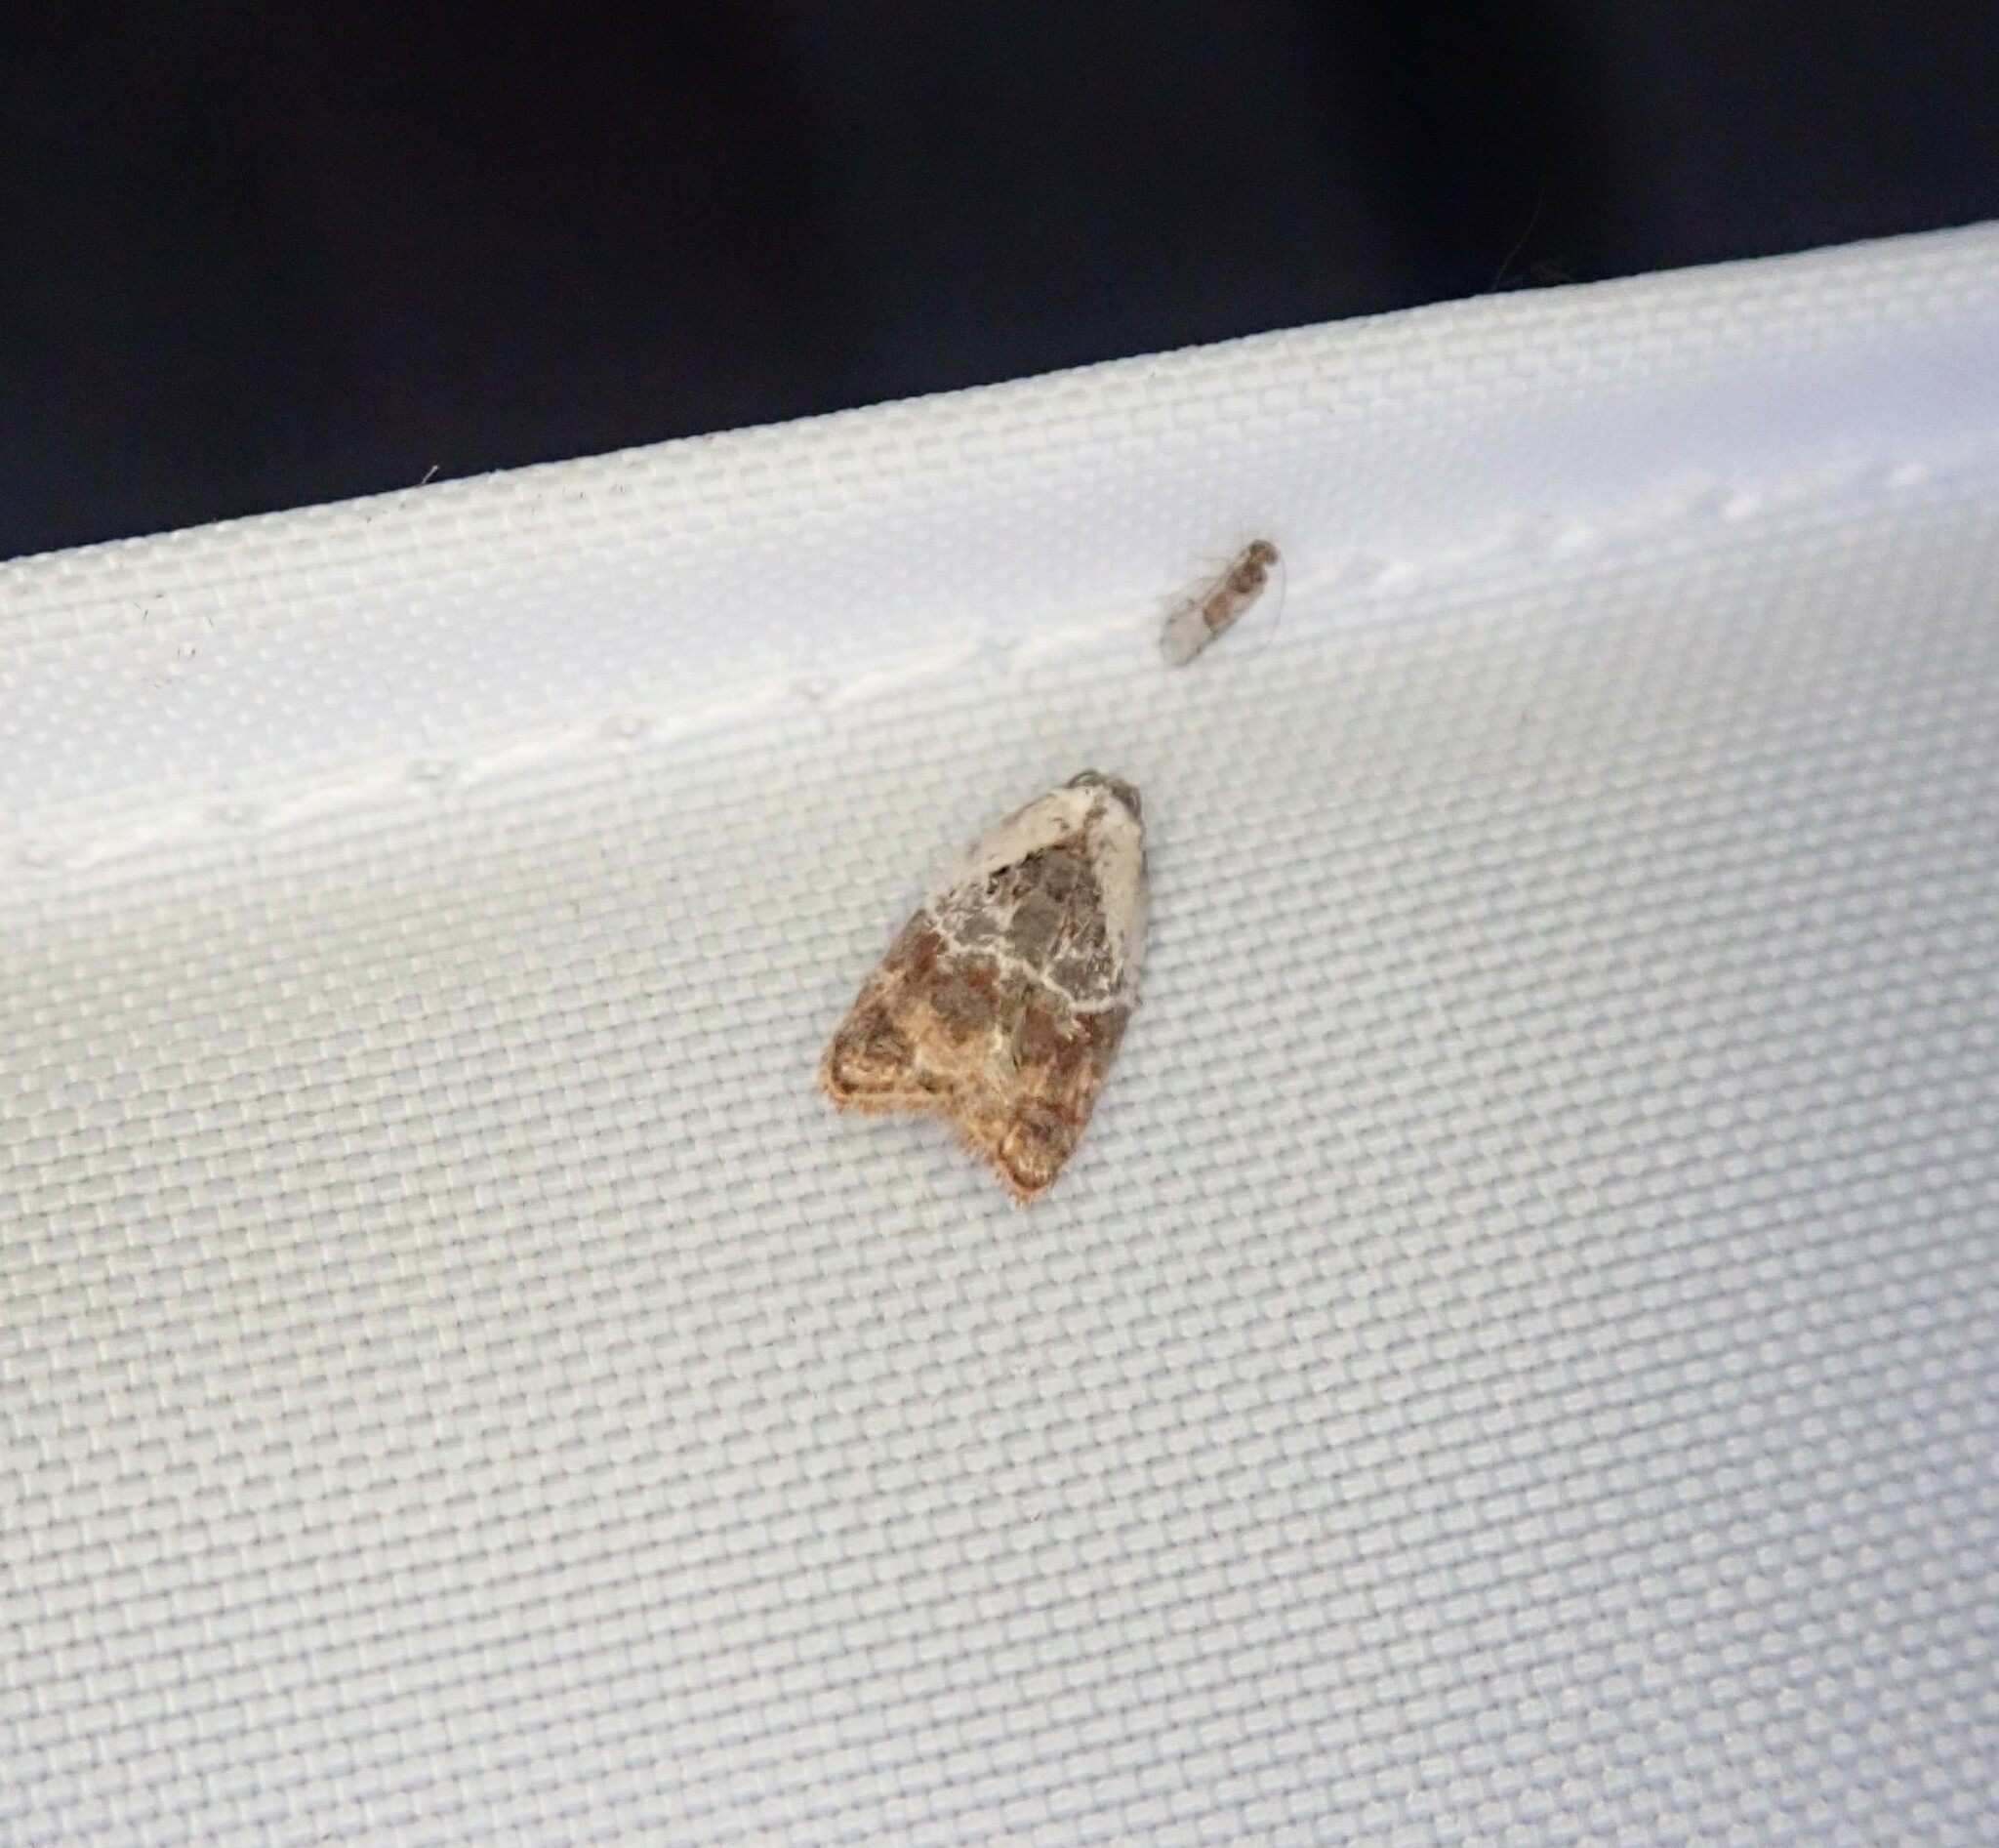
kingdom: Animalia
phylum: Arthropoda
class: Insecta
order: Lepidoptera
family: Tortricidae
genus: Acleris
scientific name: Acleris variegana
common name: Garden rose tortrix
